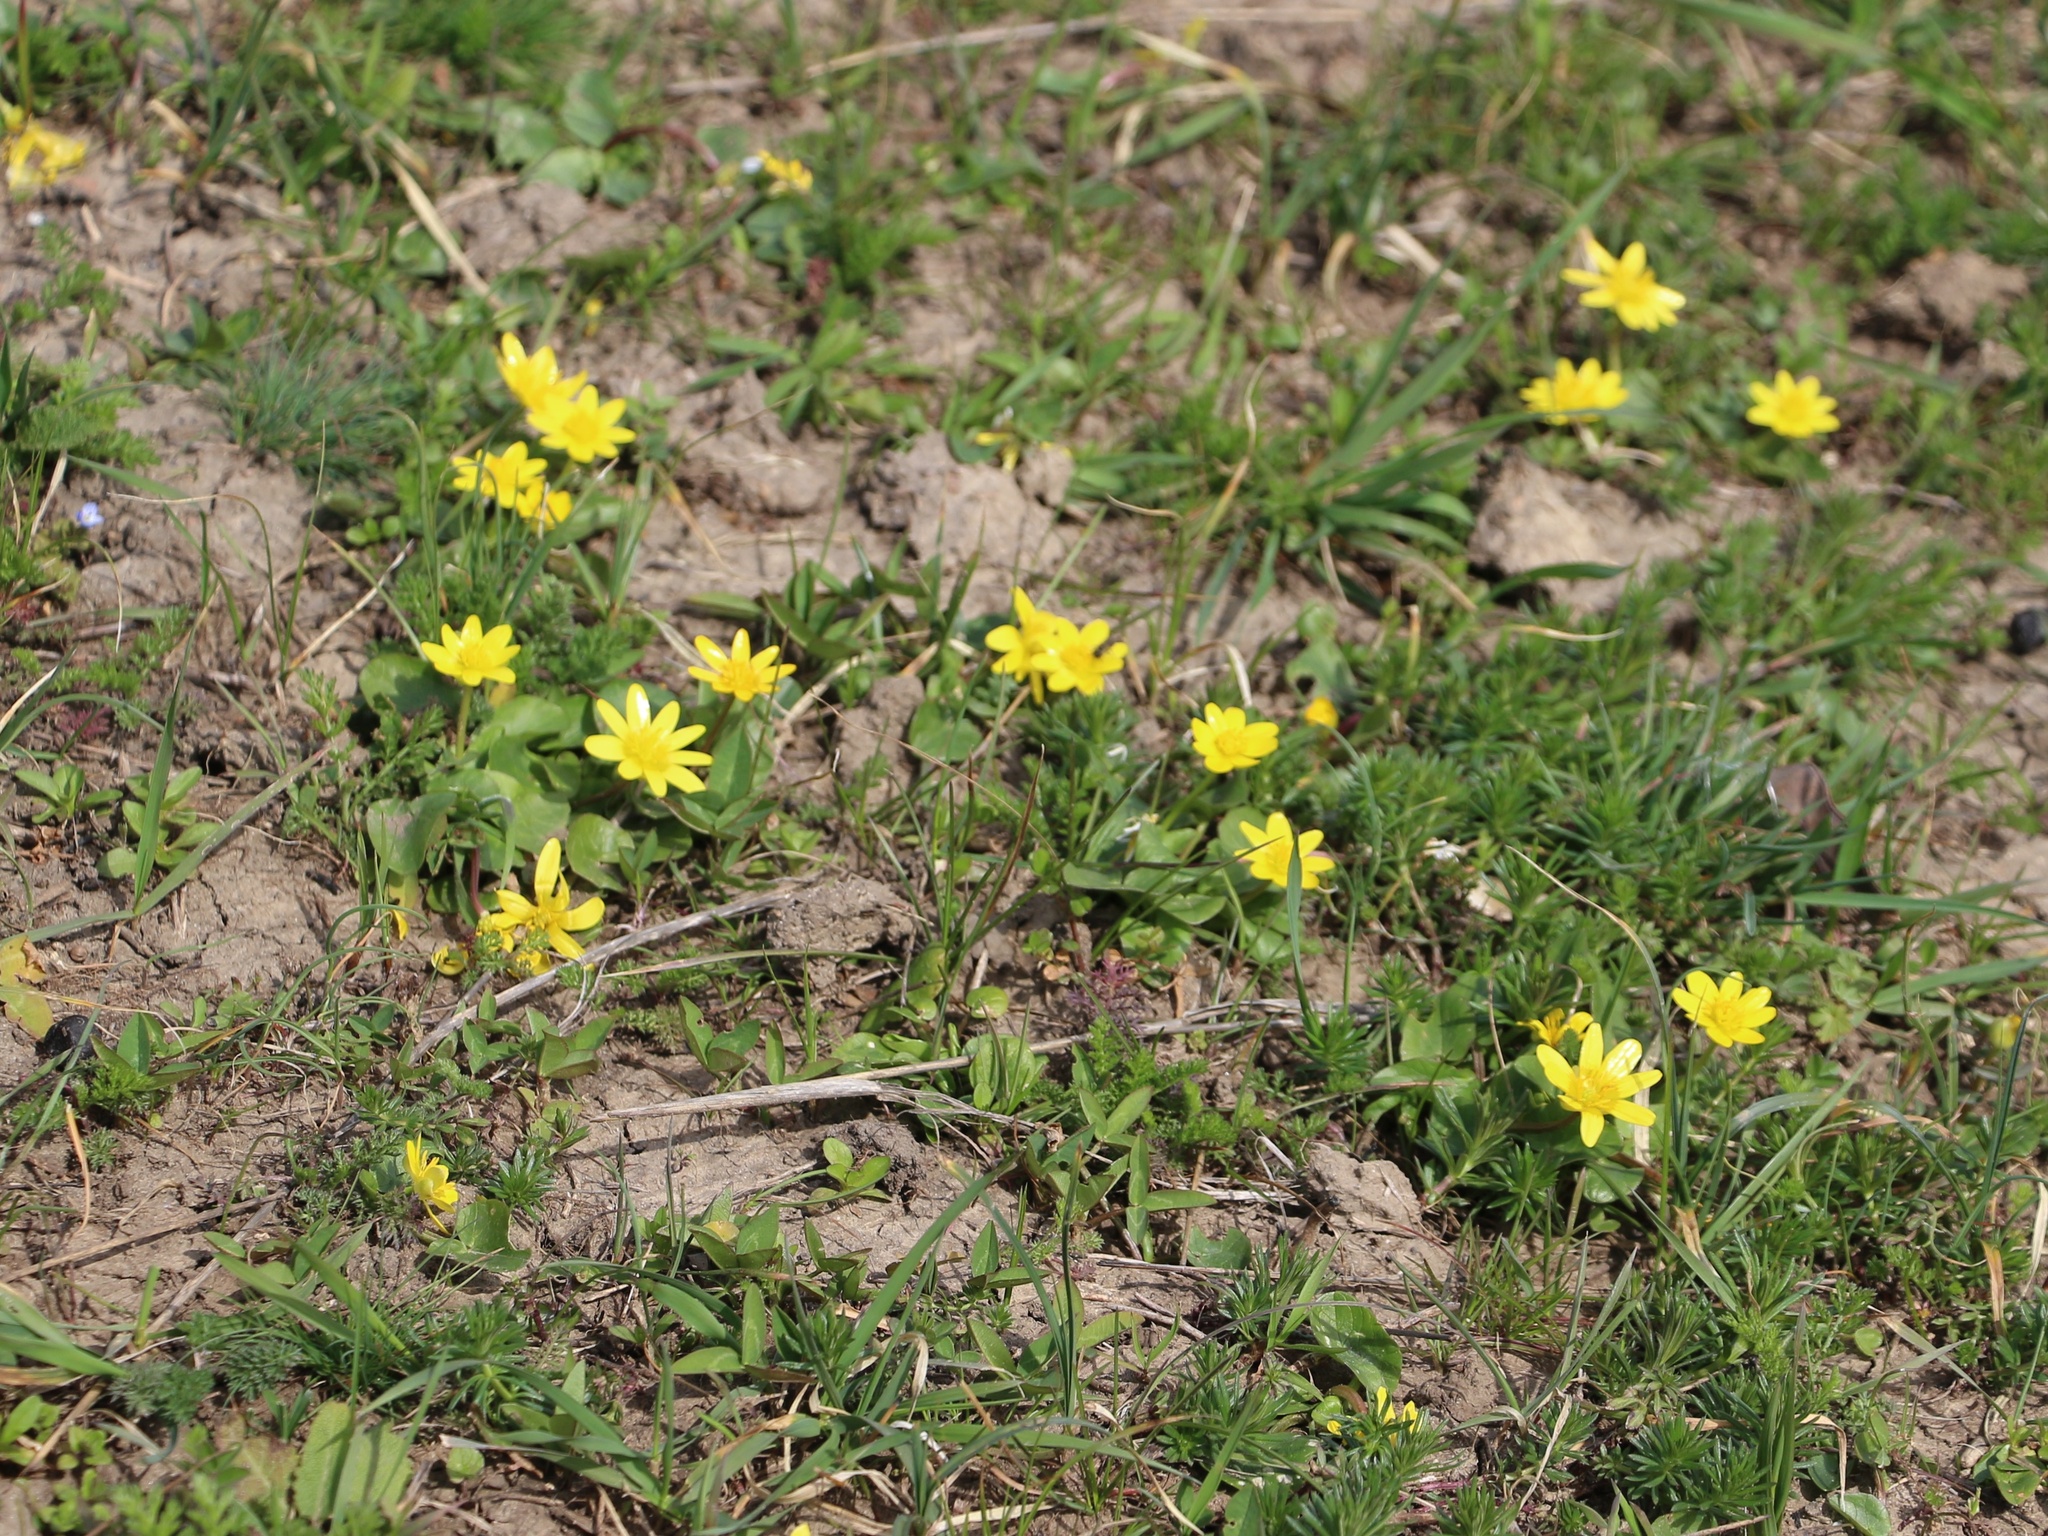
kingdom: Plantae
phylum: Tracheophyta
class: Magnoliopsida
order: Ranunculales
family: Ranunculaceae
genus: Ficaria
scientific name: Ficaria verna
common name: Lesser celandine
